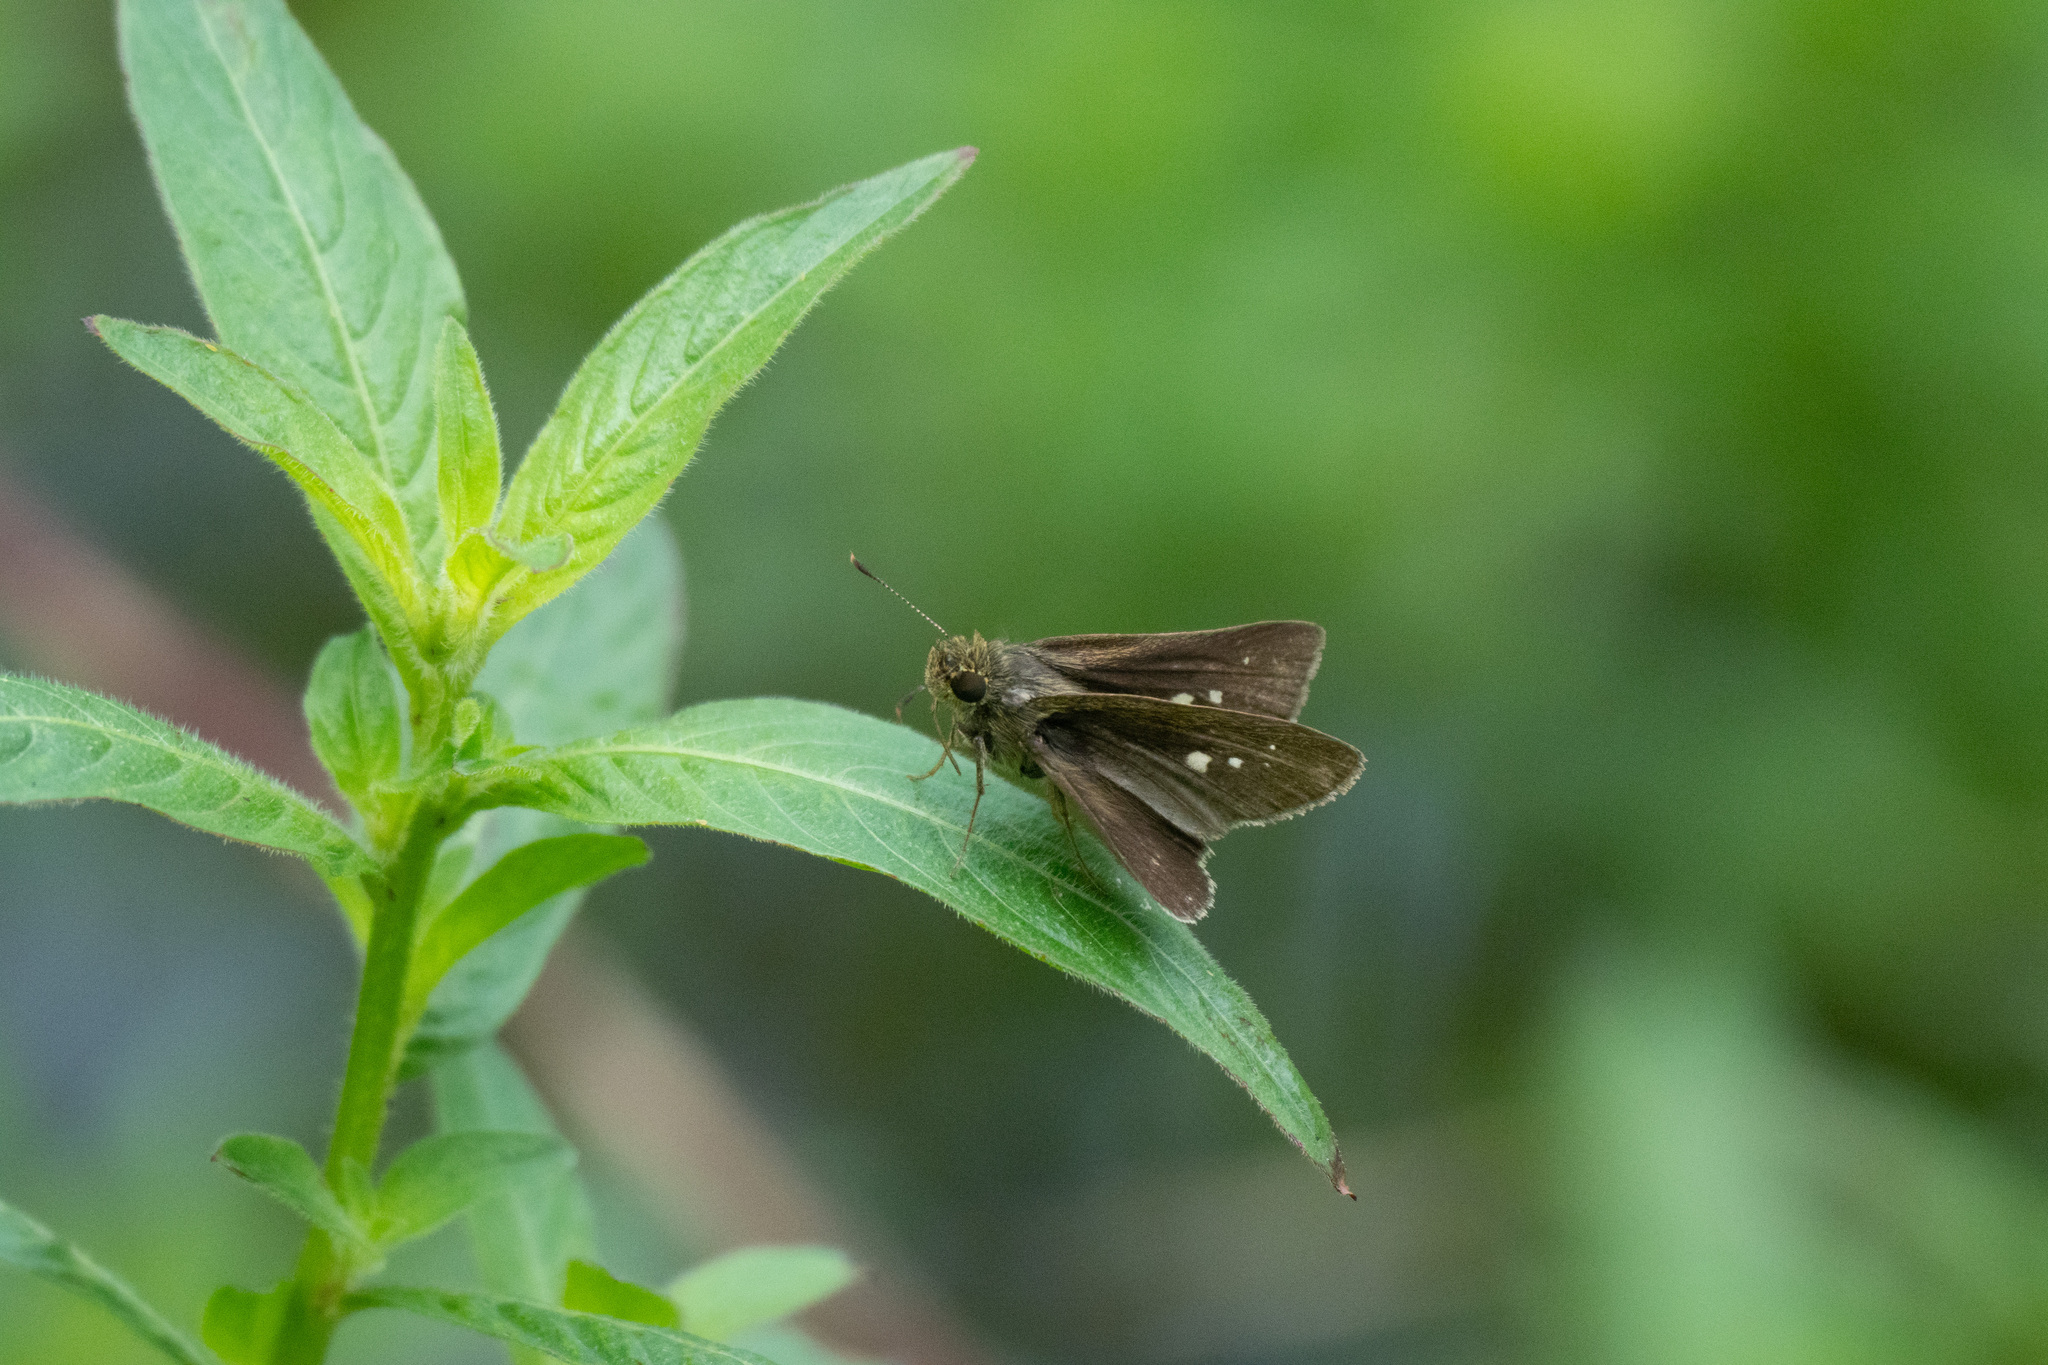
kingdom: Animalia
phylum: Arthropoda
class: Insecta
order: Lepidoptera
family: Hesperiidae
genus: Parnara
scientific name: Parnara naso
